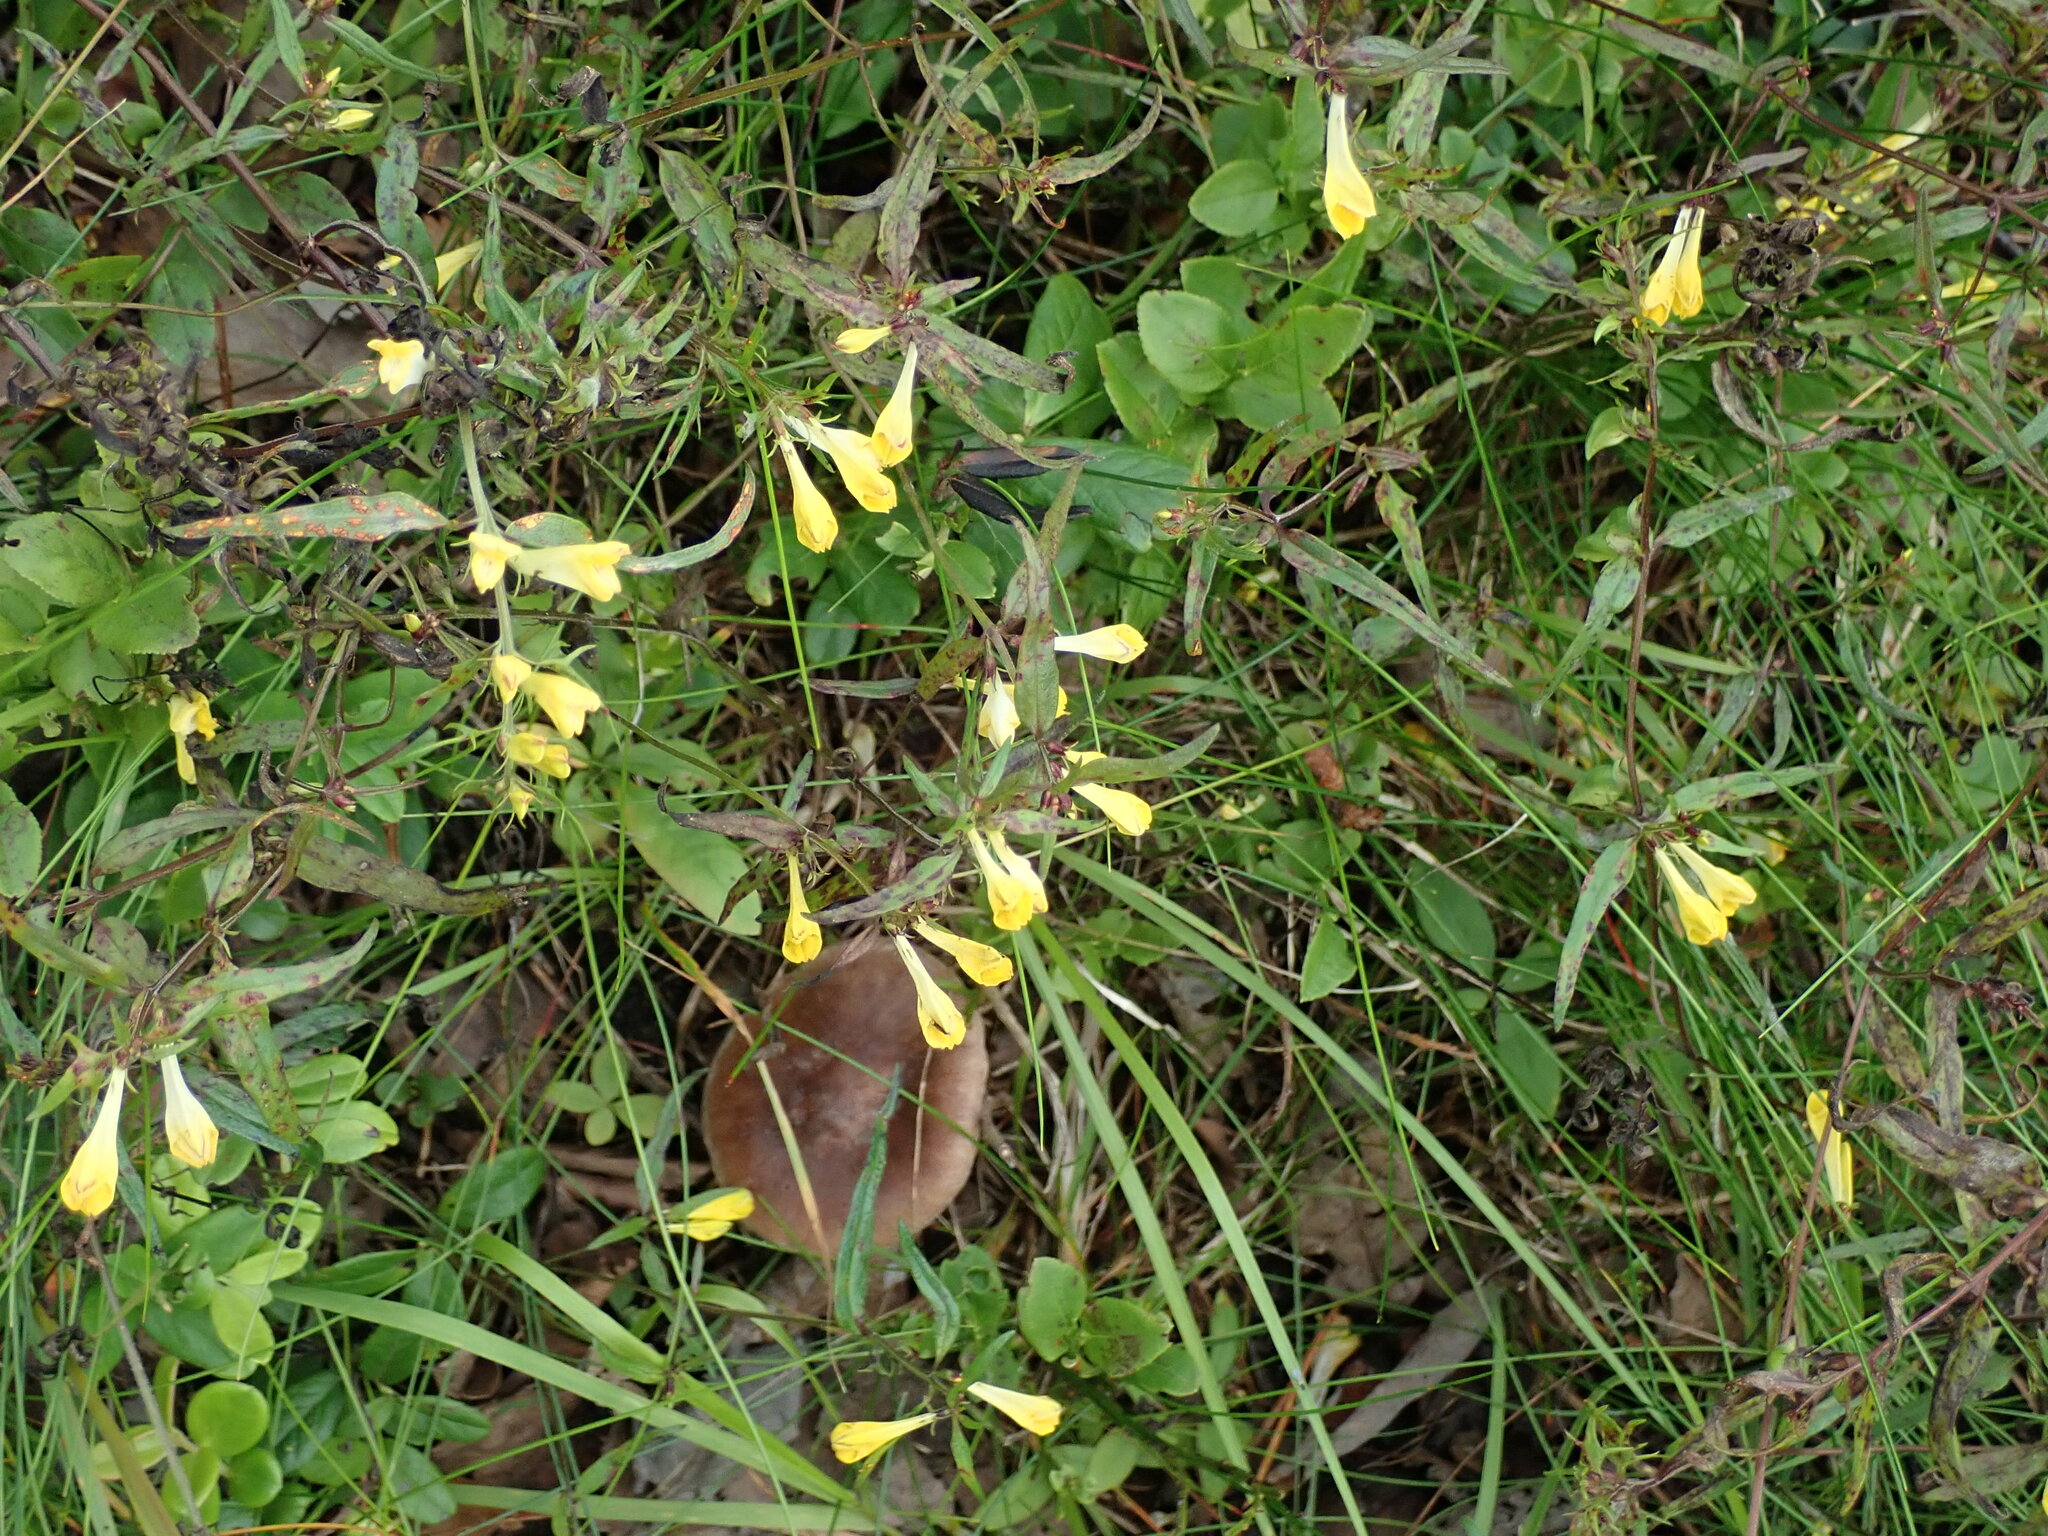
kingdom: Plantae
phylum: Tracheophyta
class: Magnoliopsida
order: Lamiales
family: Orobanchaceae
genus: Melampyrum
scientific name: Melampyrum pratense
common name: Common cow-wheat
